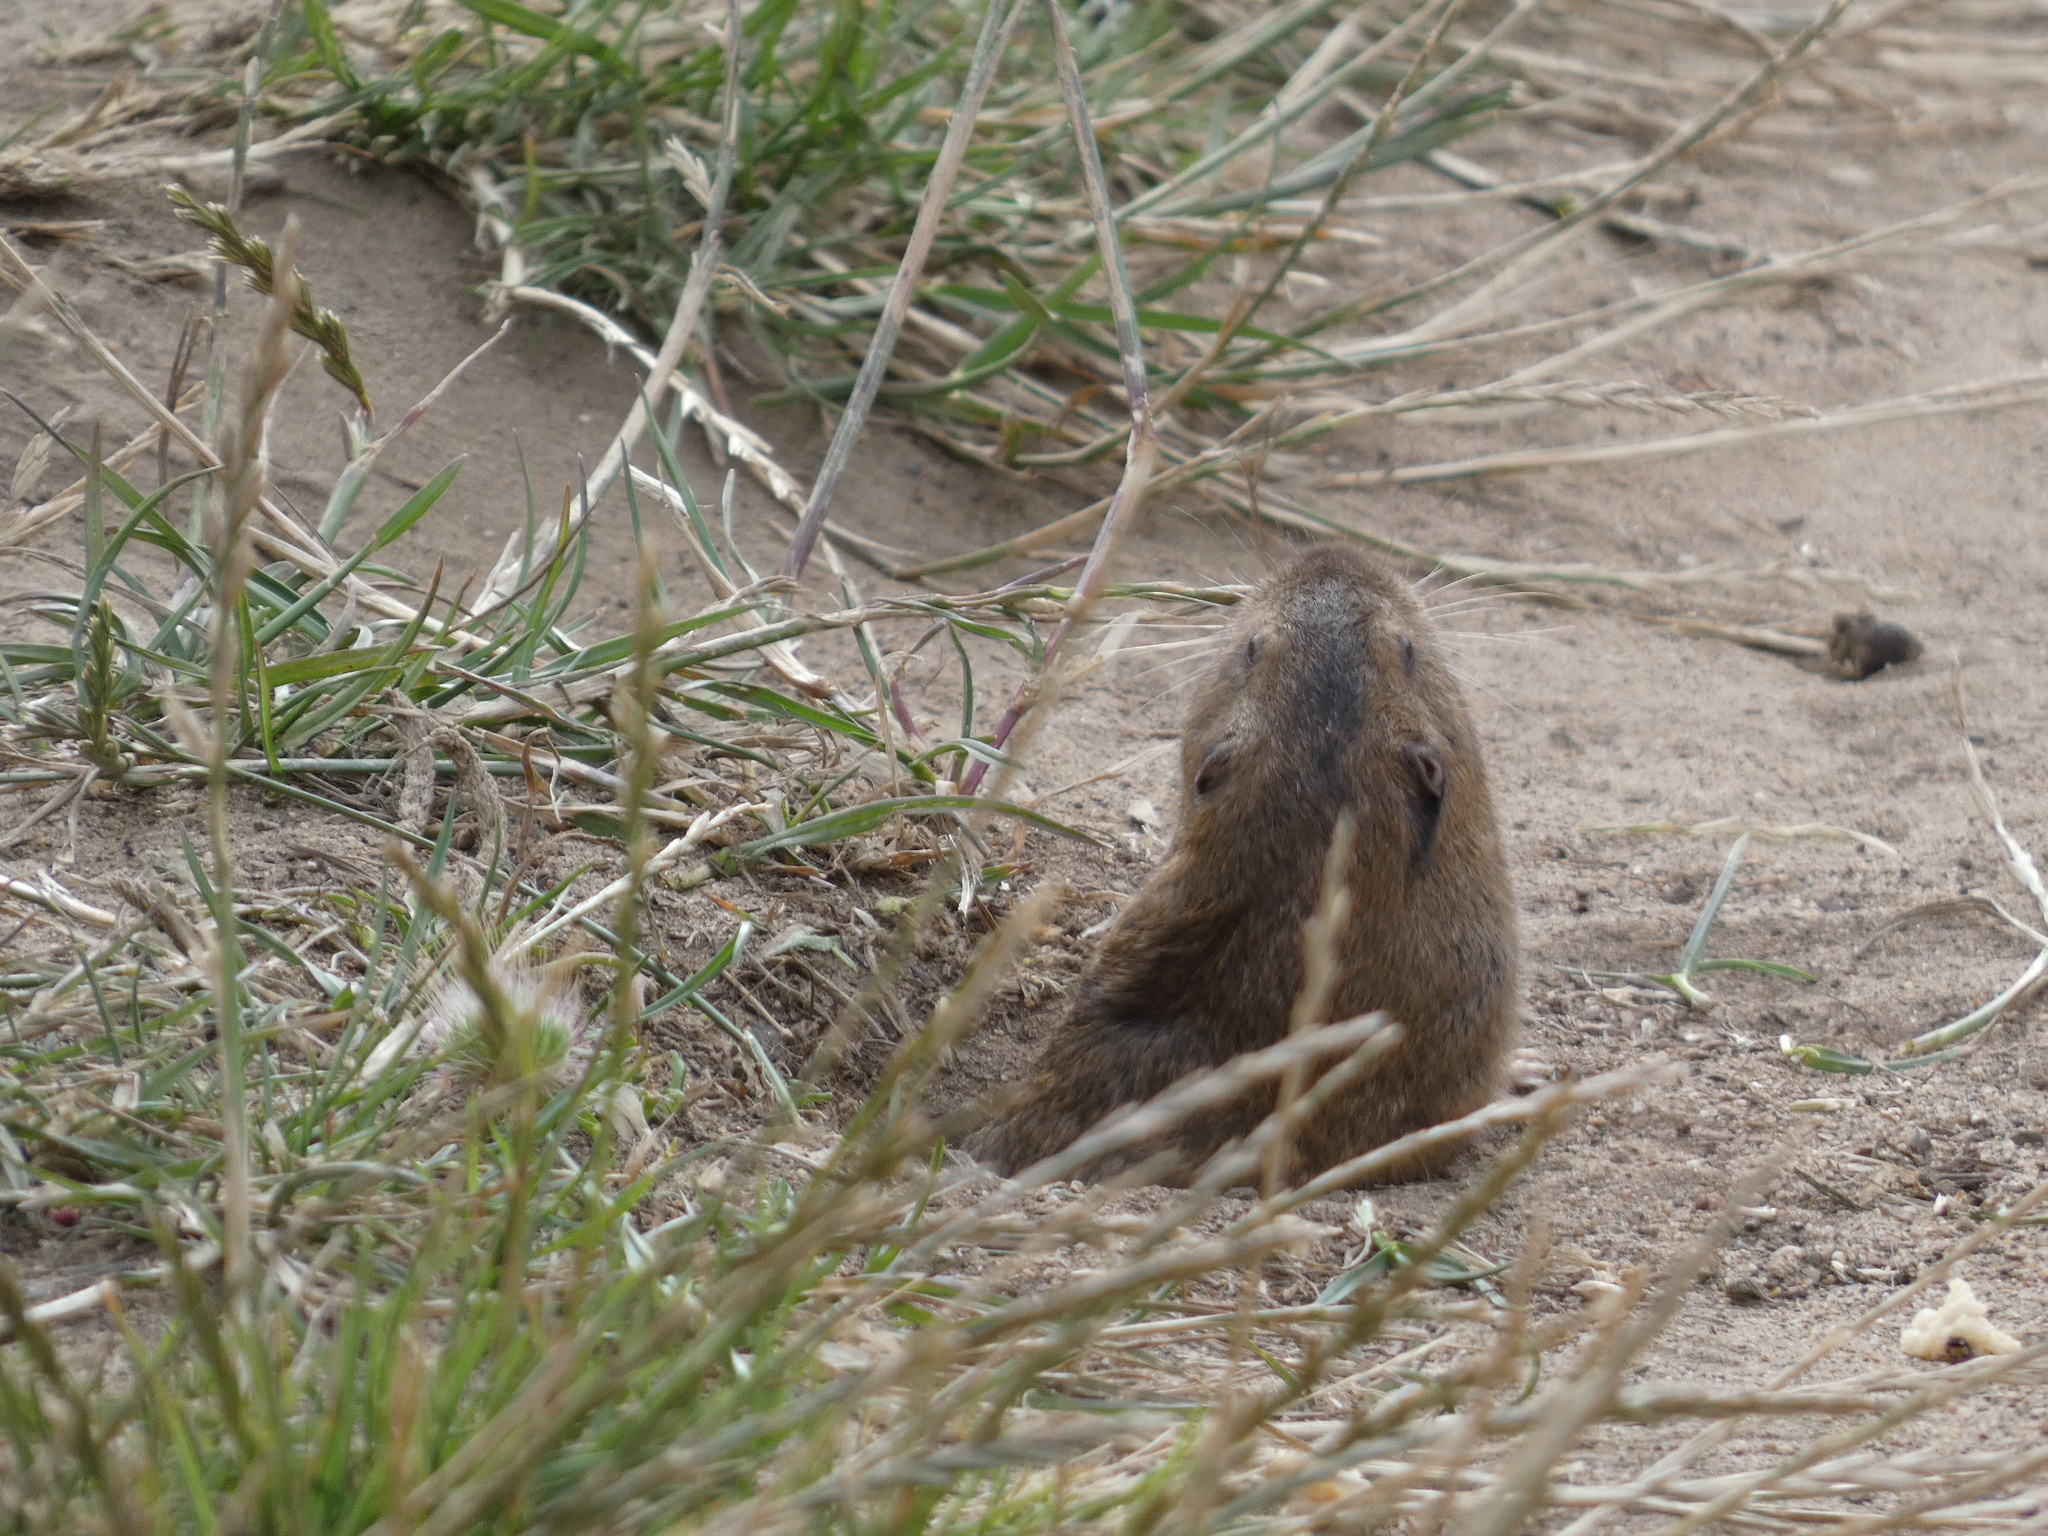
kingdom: Animalia
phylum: Chordata
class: Mammalia
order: Rodentia
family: Geomyidae
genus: Thomomys
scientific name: Thomomys bottae
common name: Botta's pocket gopher
